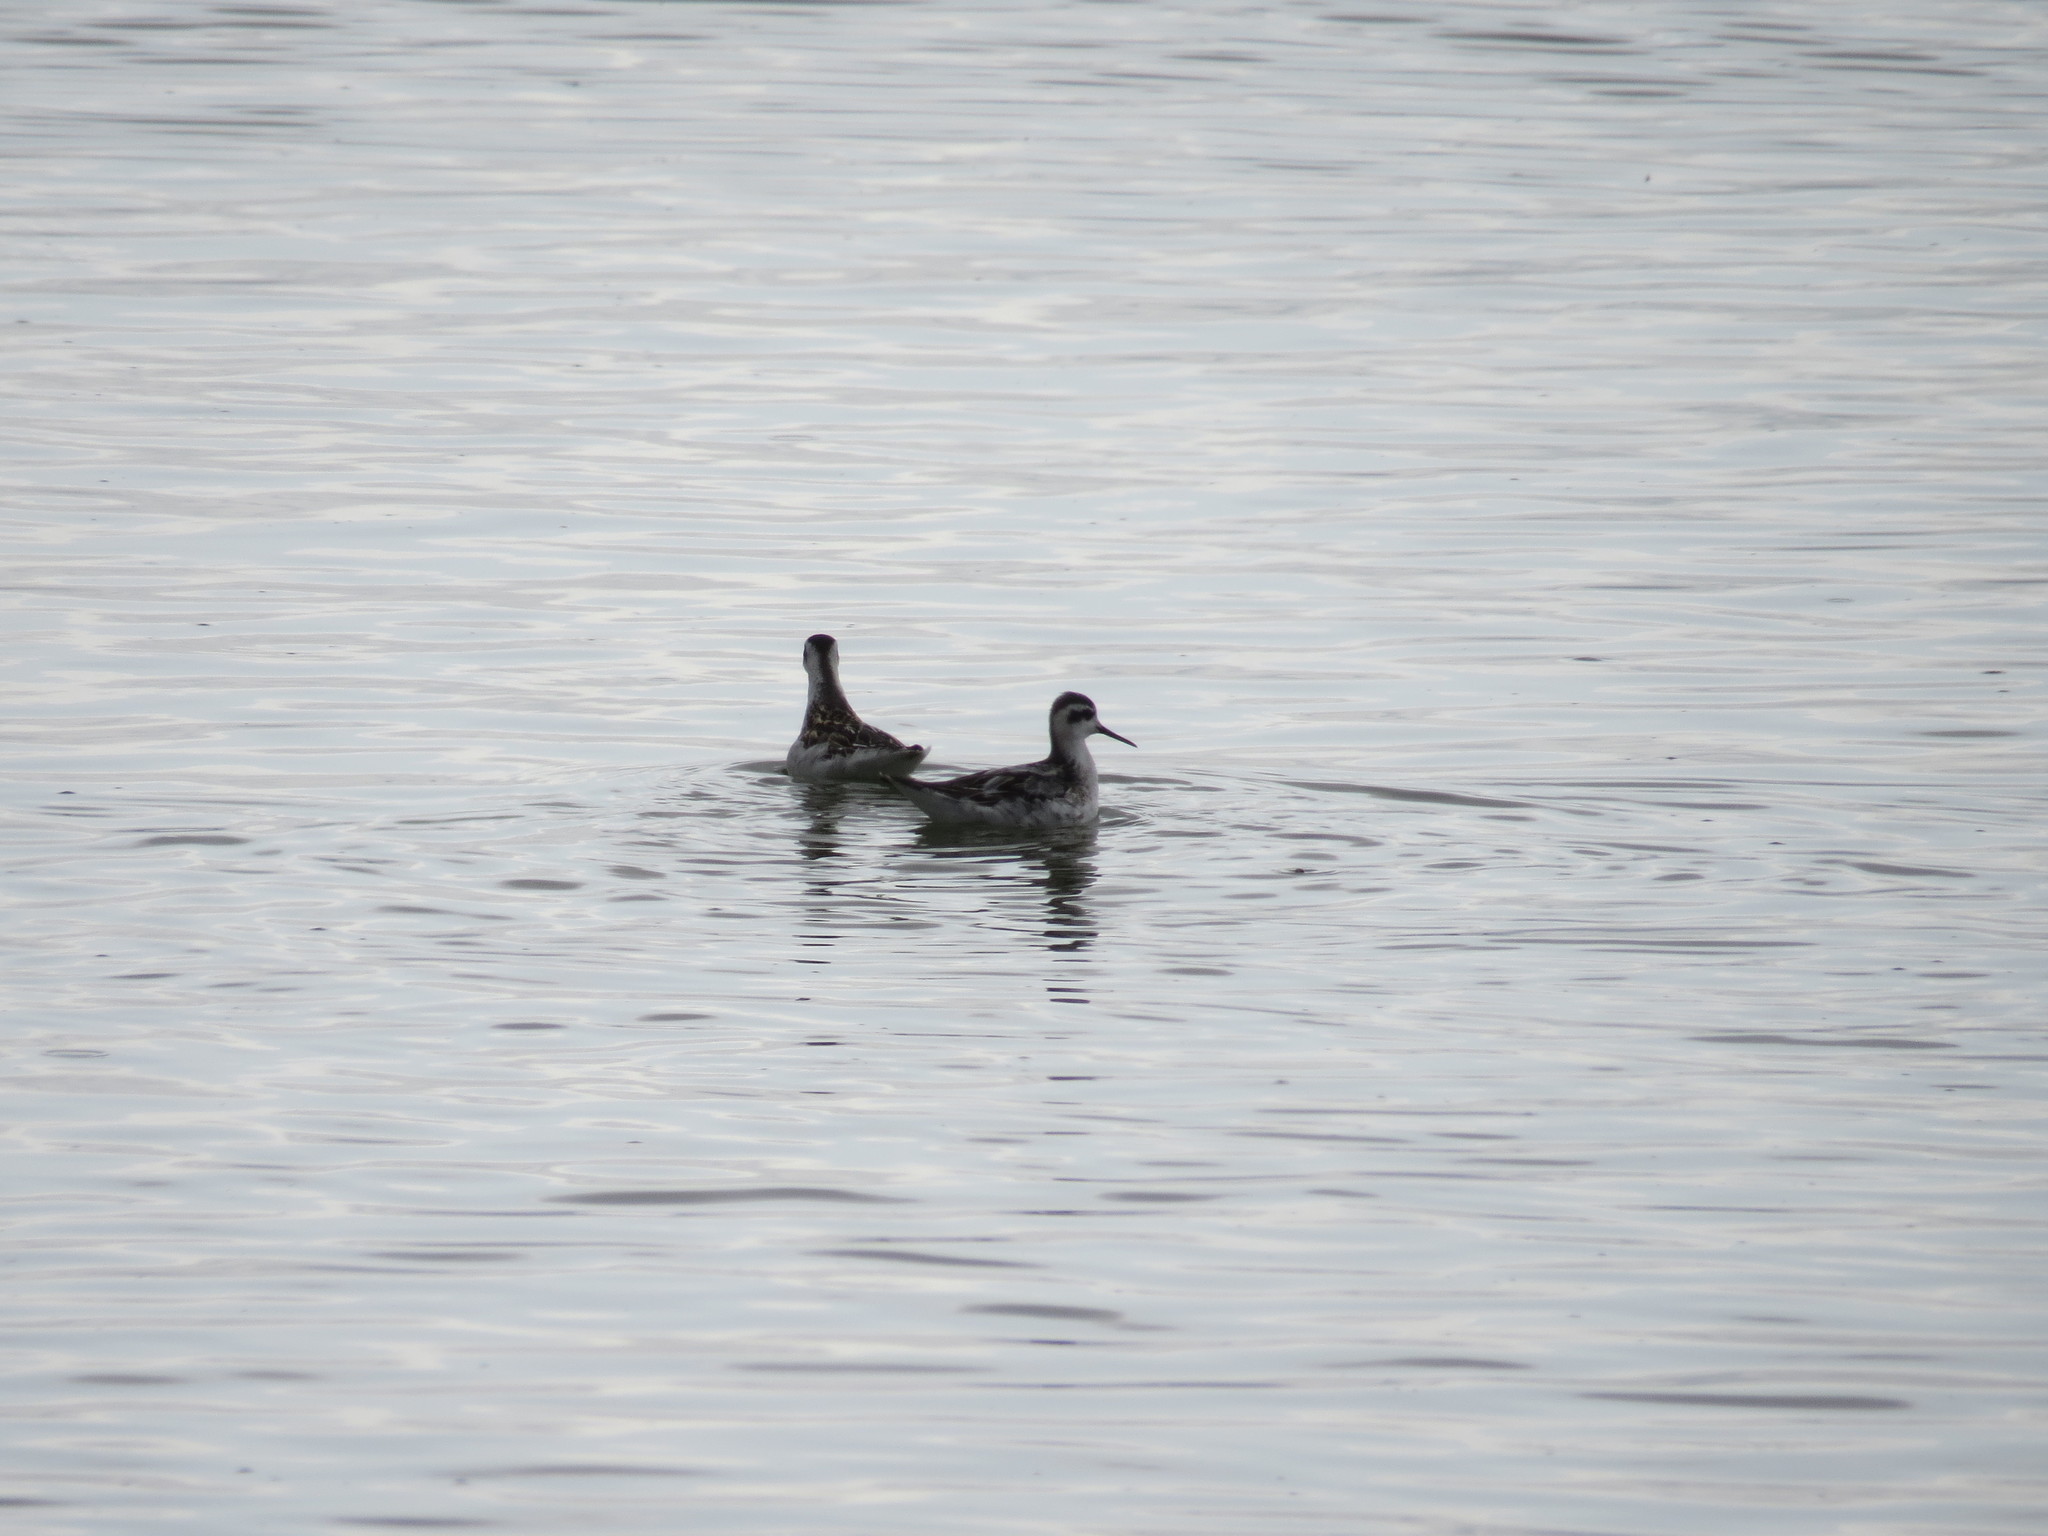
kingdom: Animalia
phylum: Chordata
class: Aves
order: Charadriiformes
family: Scolopacidae
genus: Phalaropus
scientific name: Phalaropus lobatus
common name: Red-necked phalarope
